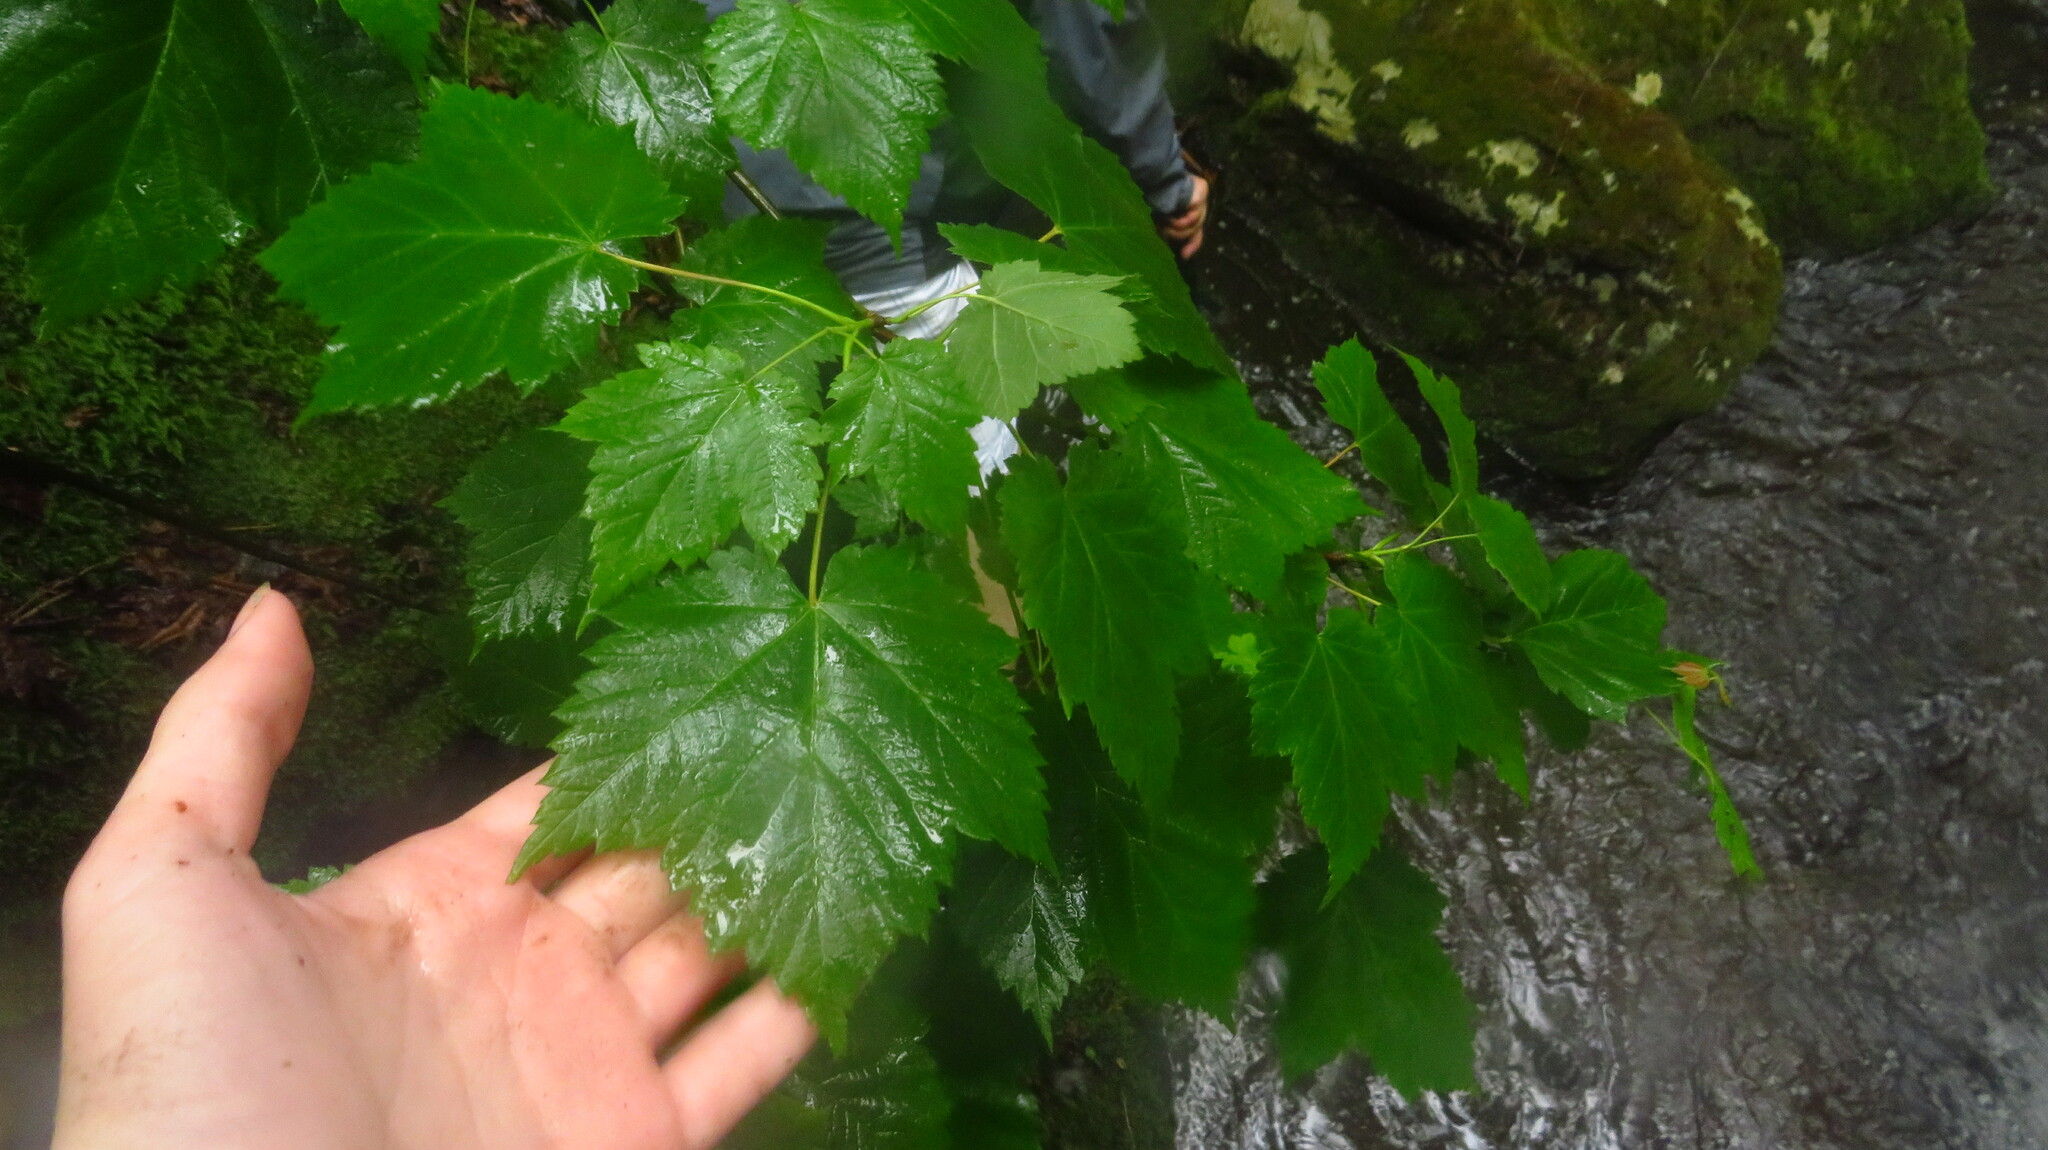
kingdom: Plantae
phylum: Tracheophyta
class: Magnoliopsida
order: Sapindales
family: Sapindaceae
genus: Acer
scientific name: Acer spicatum
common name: Mountain maple
